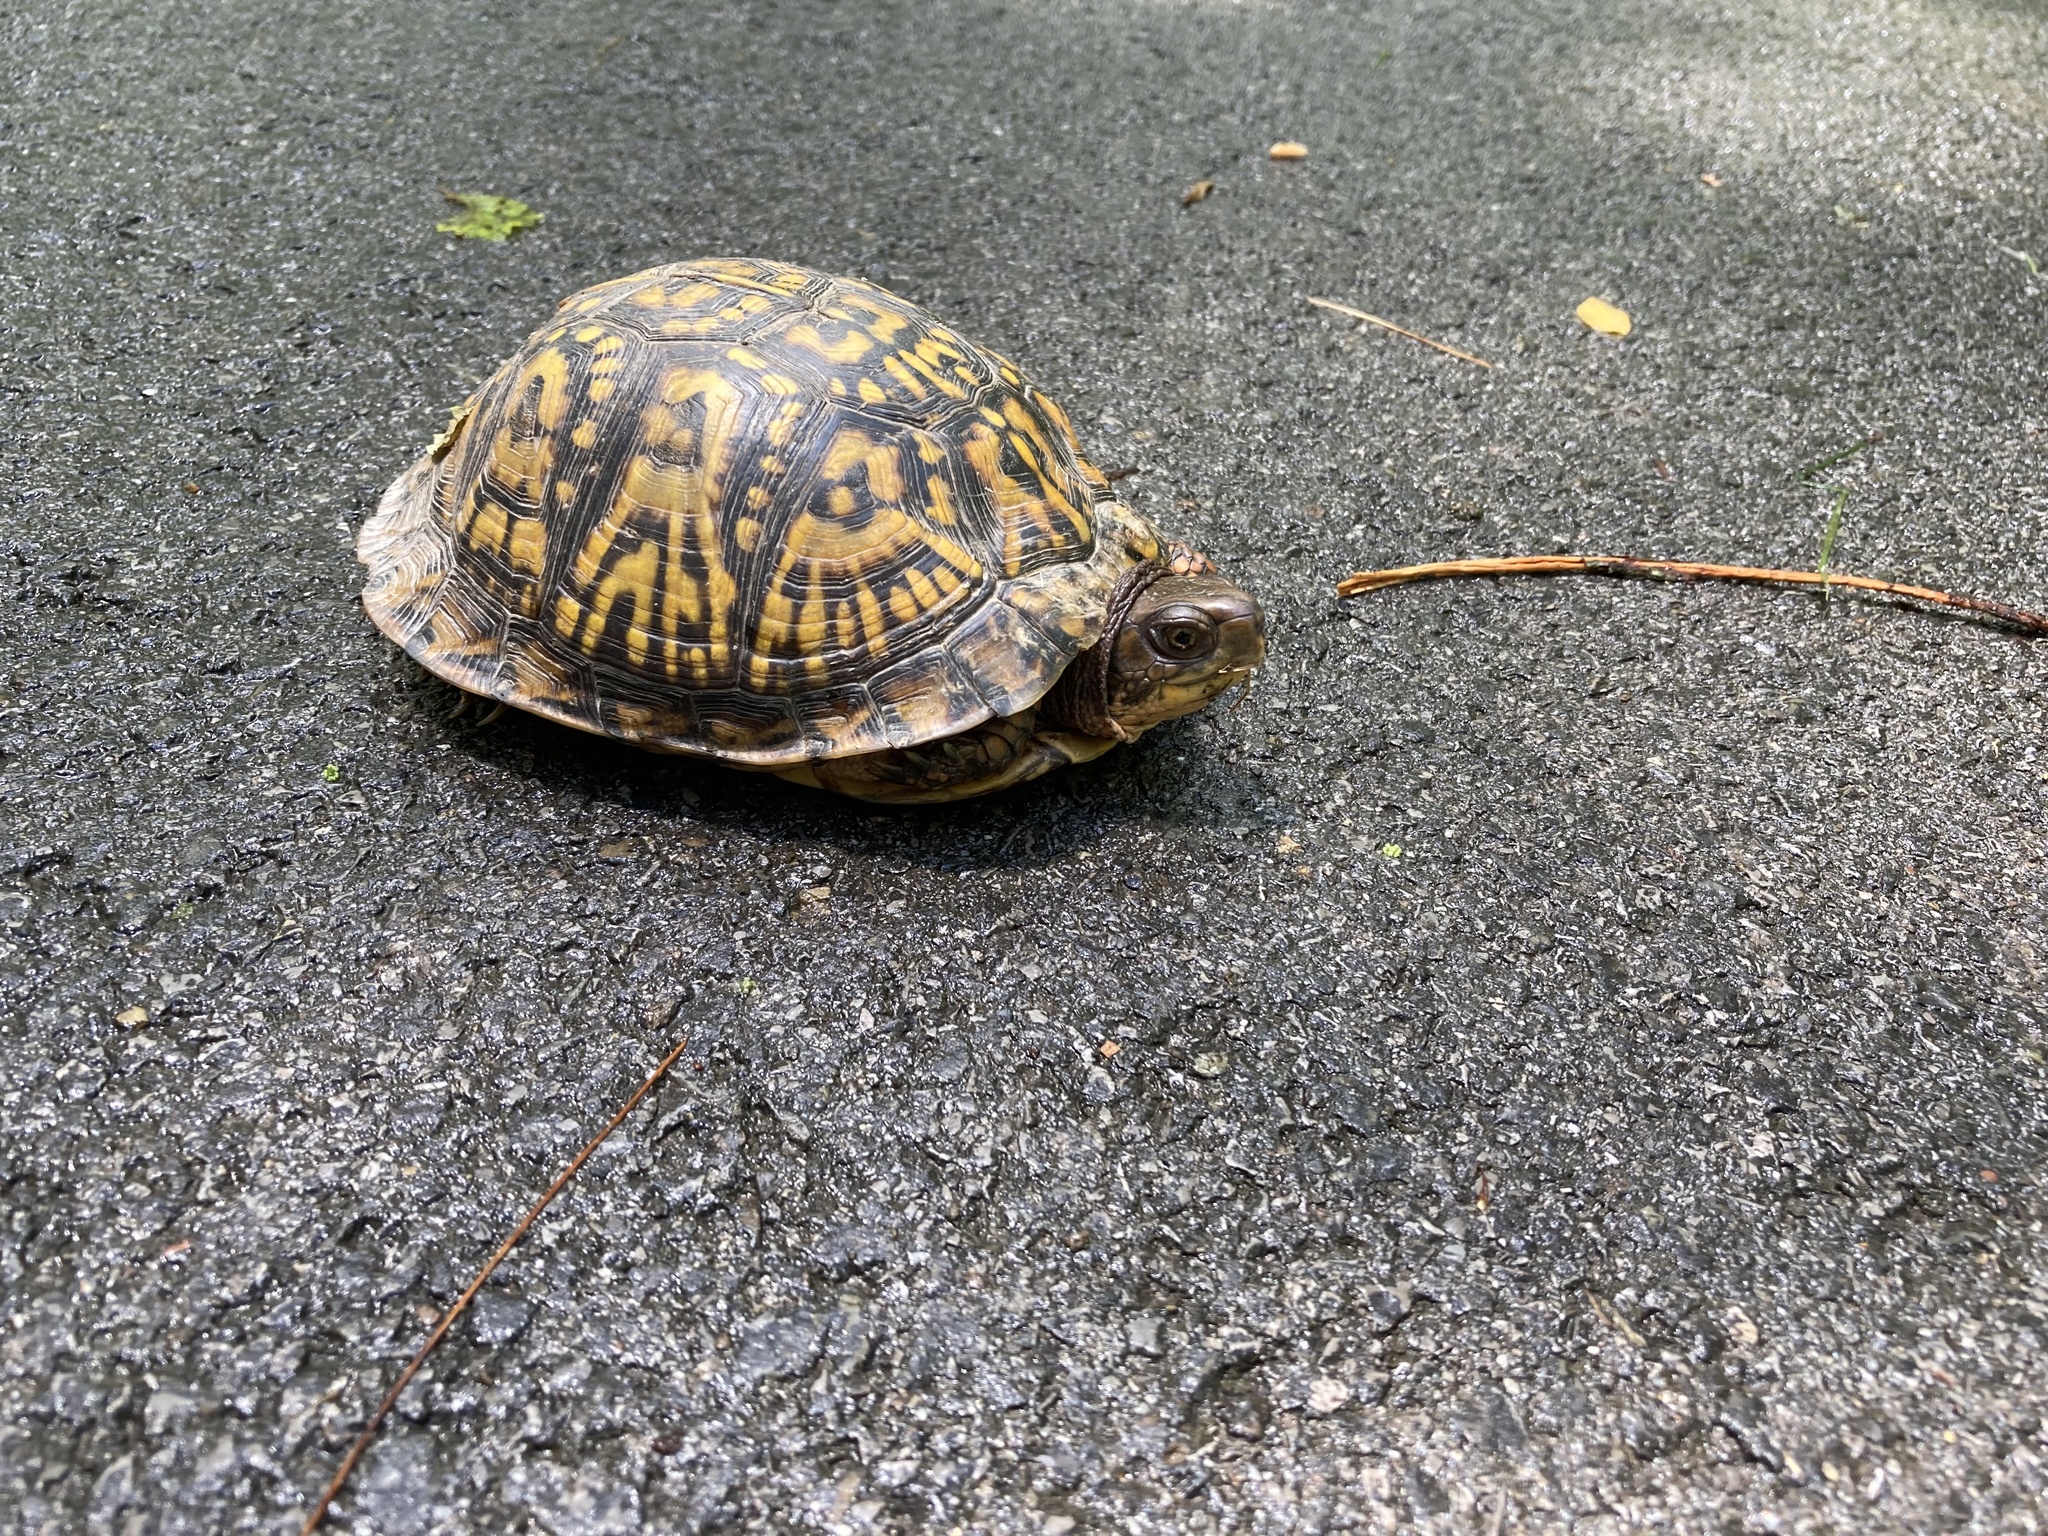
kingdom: Animalia
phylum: Chordata
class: Testudines
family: Emydidae
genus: Terrapene
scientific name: Terrapene carolina
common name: Common box turtle
